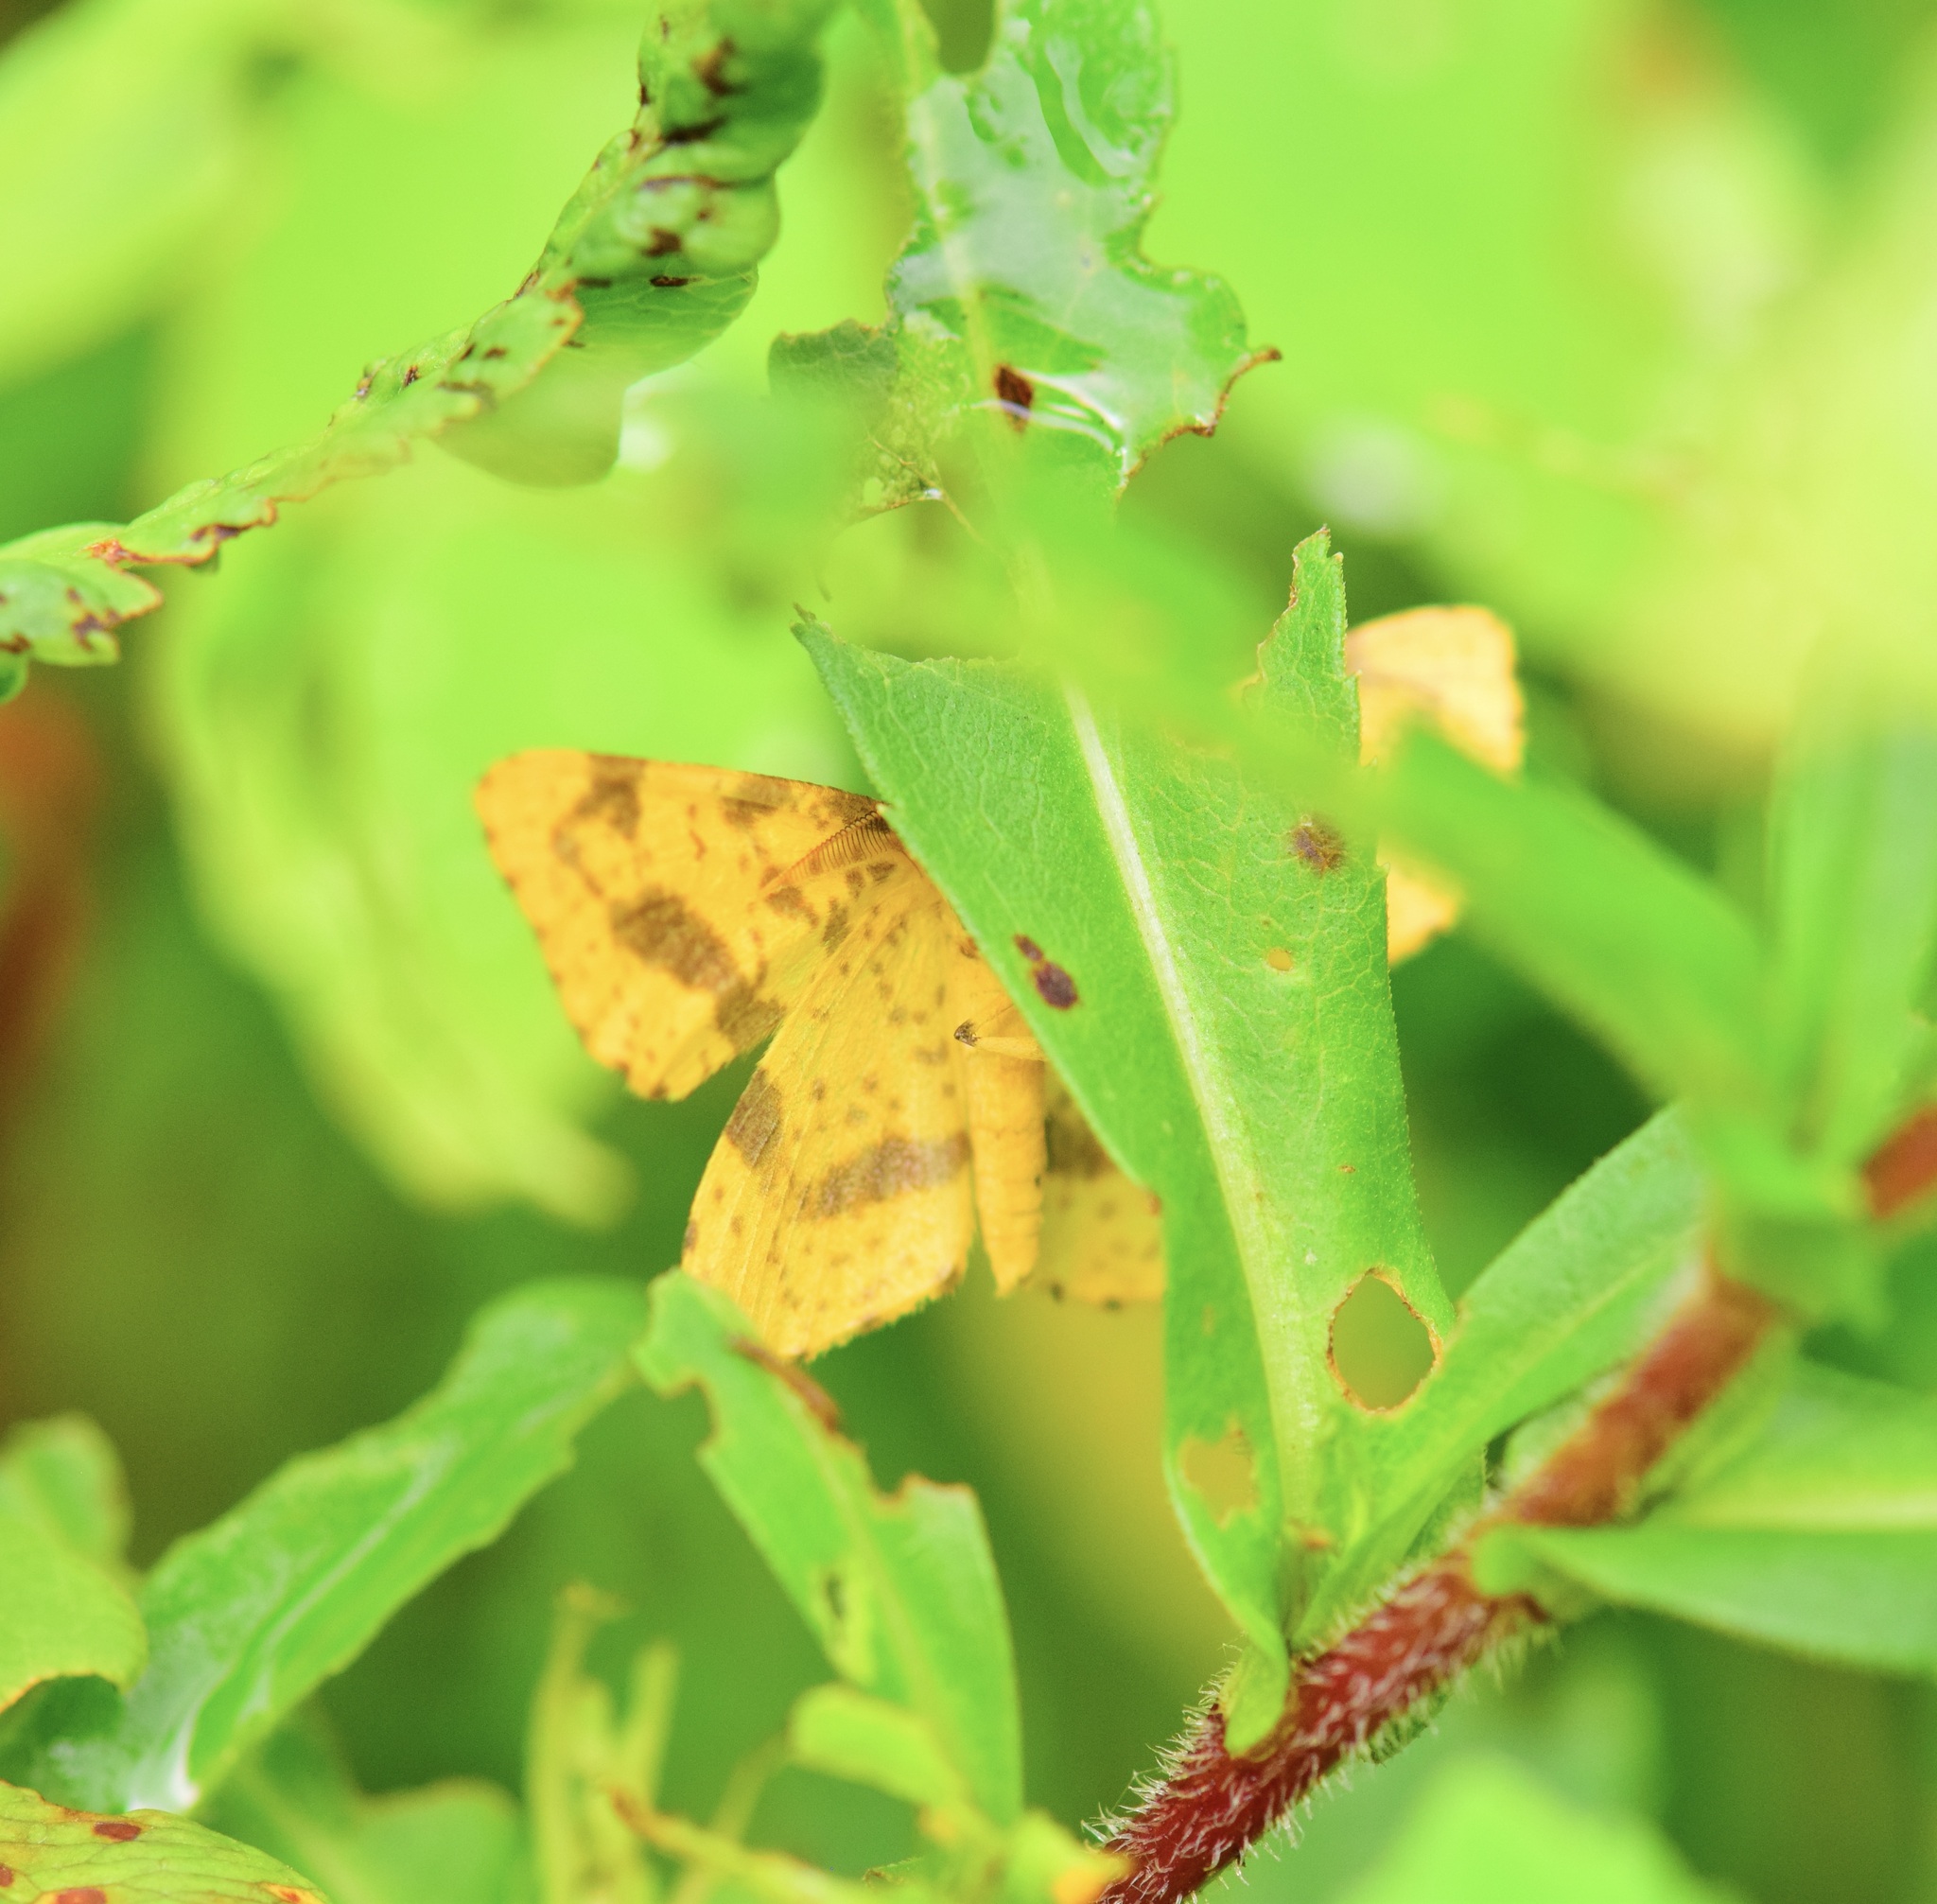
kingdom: Animalia
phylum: Arthropoda
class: Insecta
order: Lepidoptera
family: Geometridae
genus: Xanthotype
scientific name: Xanthotype
